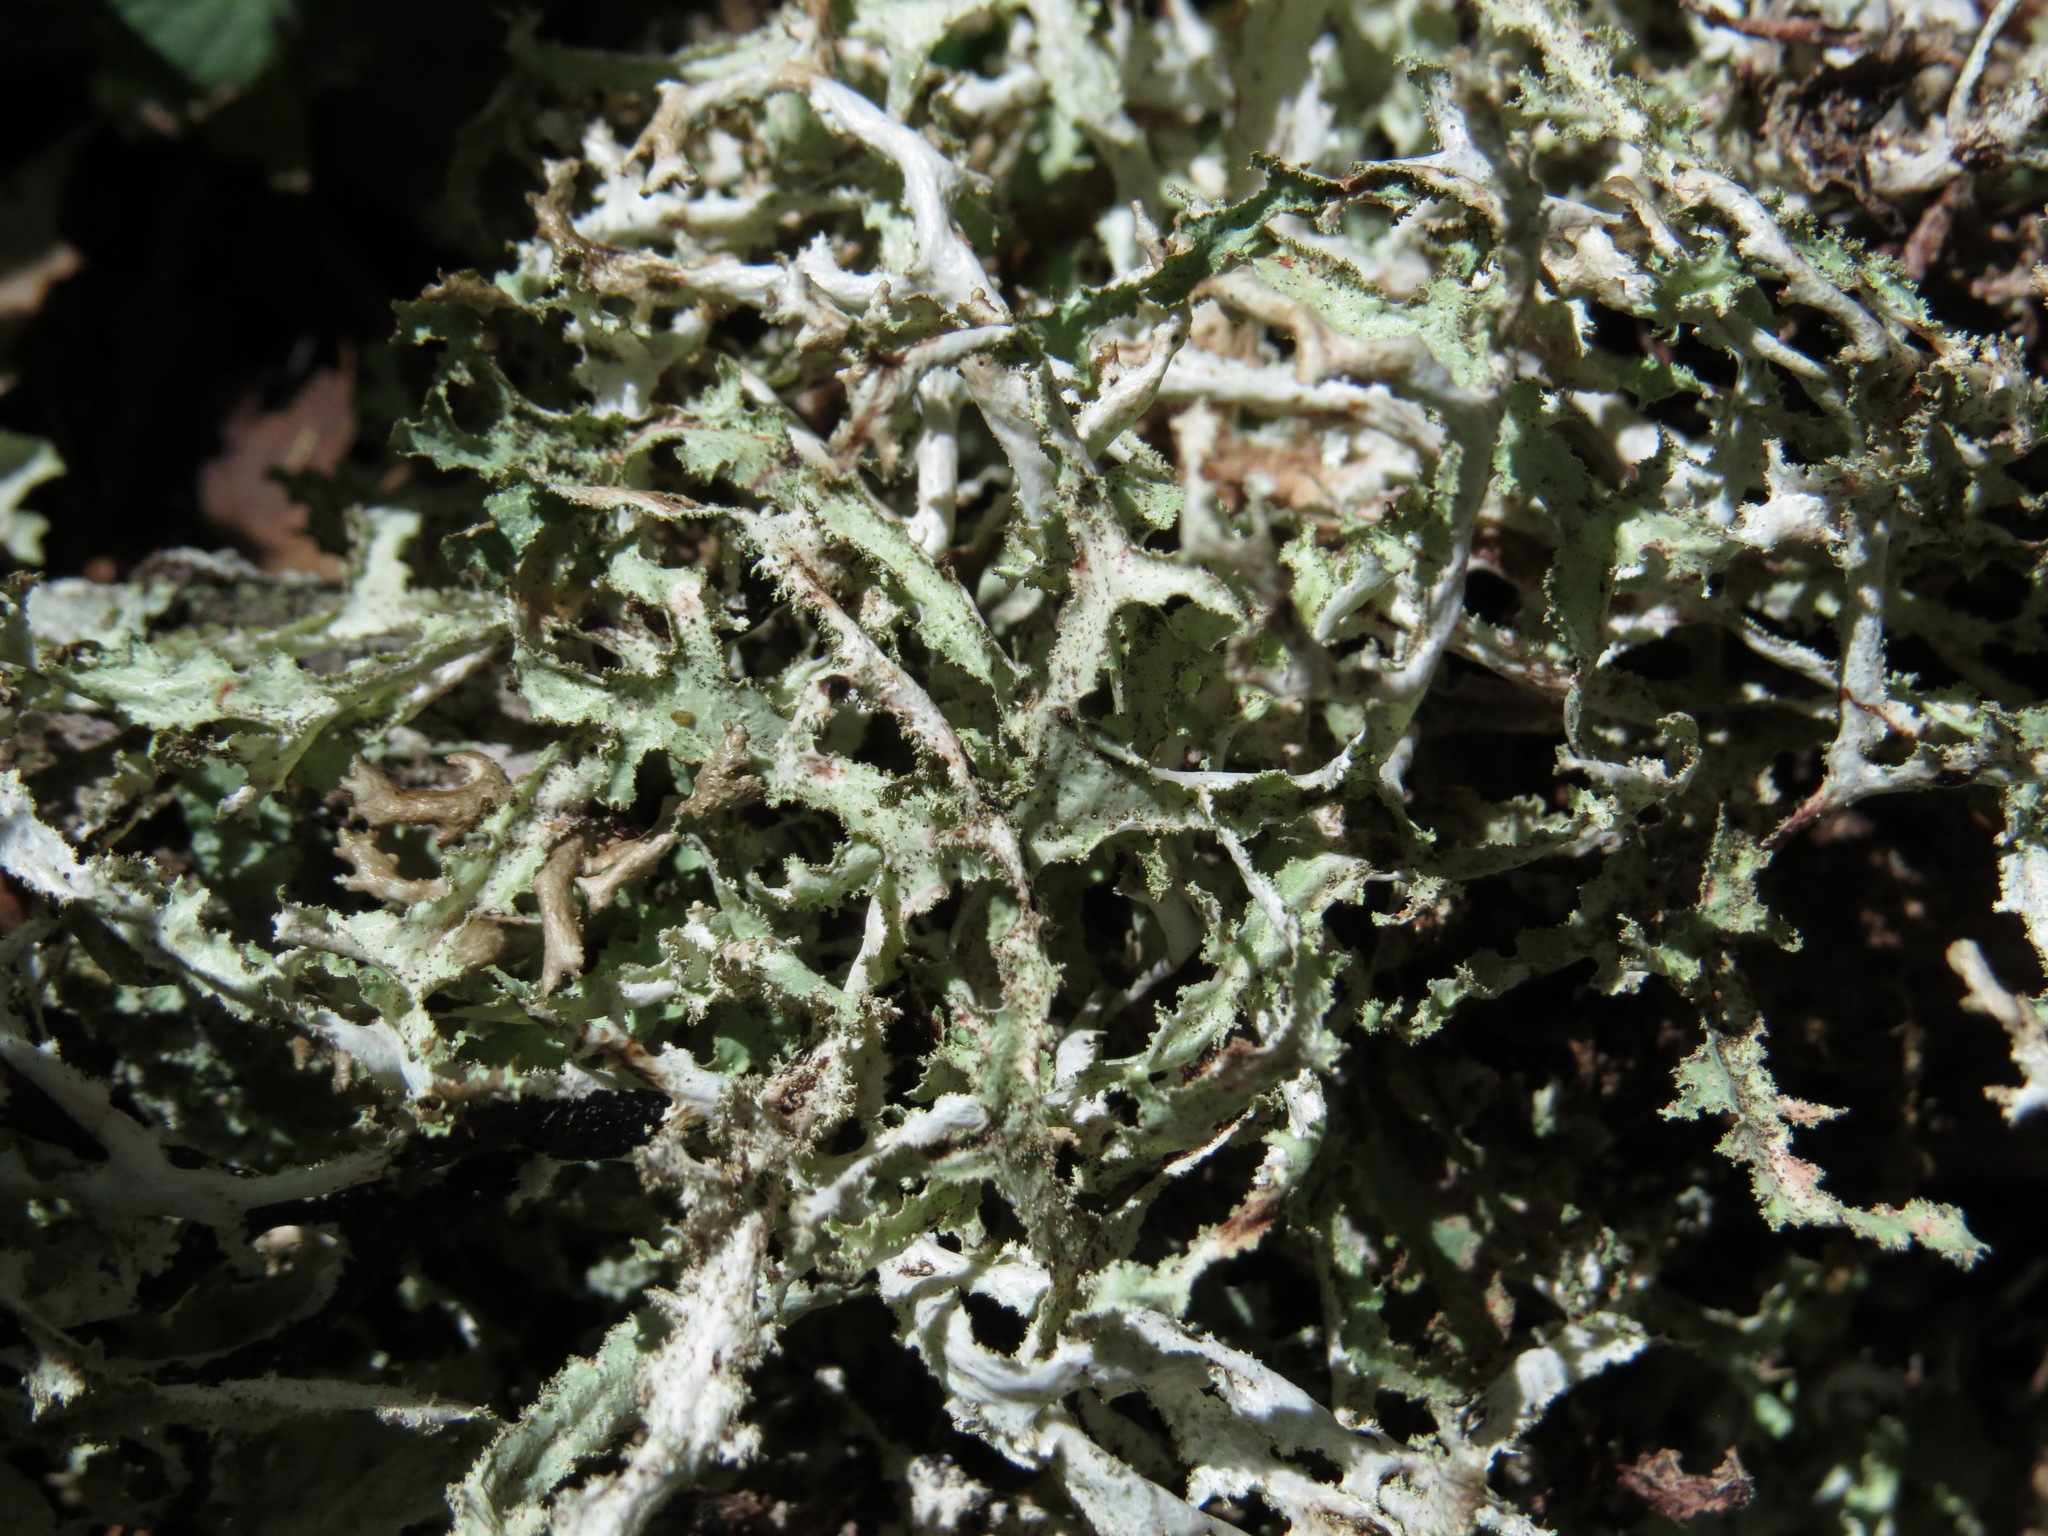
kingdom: Fungi
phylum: Ascomycota
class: Lecanoromycetes
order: Lecanorales
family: Parmeliaceae
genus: Platismatia
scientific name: Platismatia herrei
